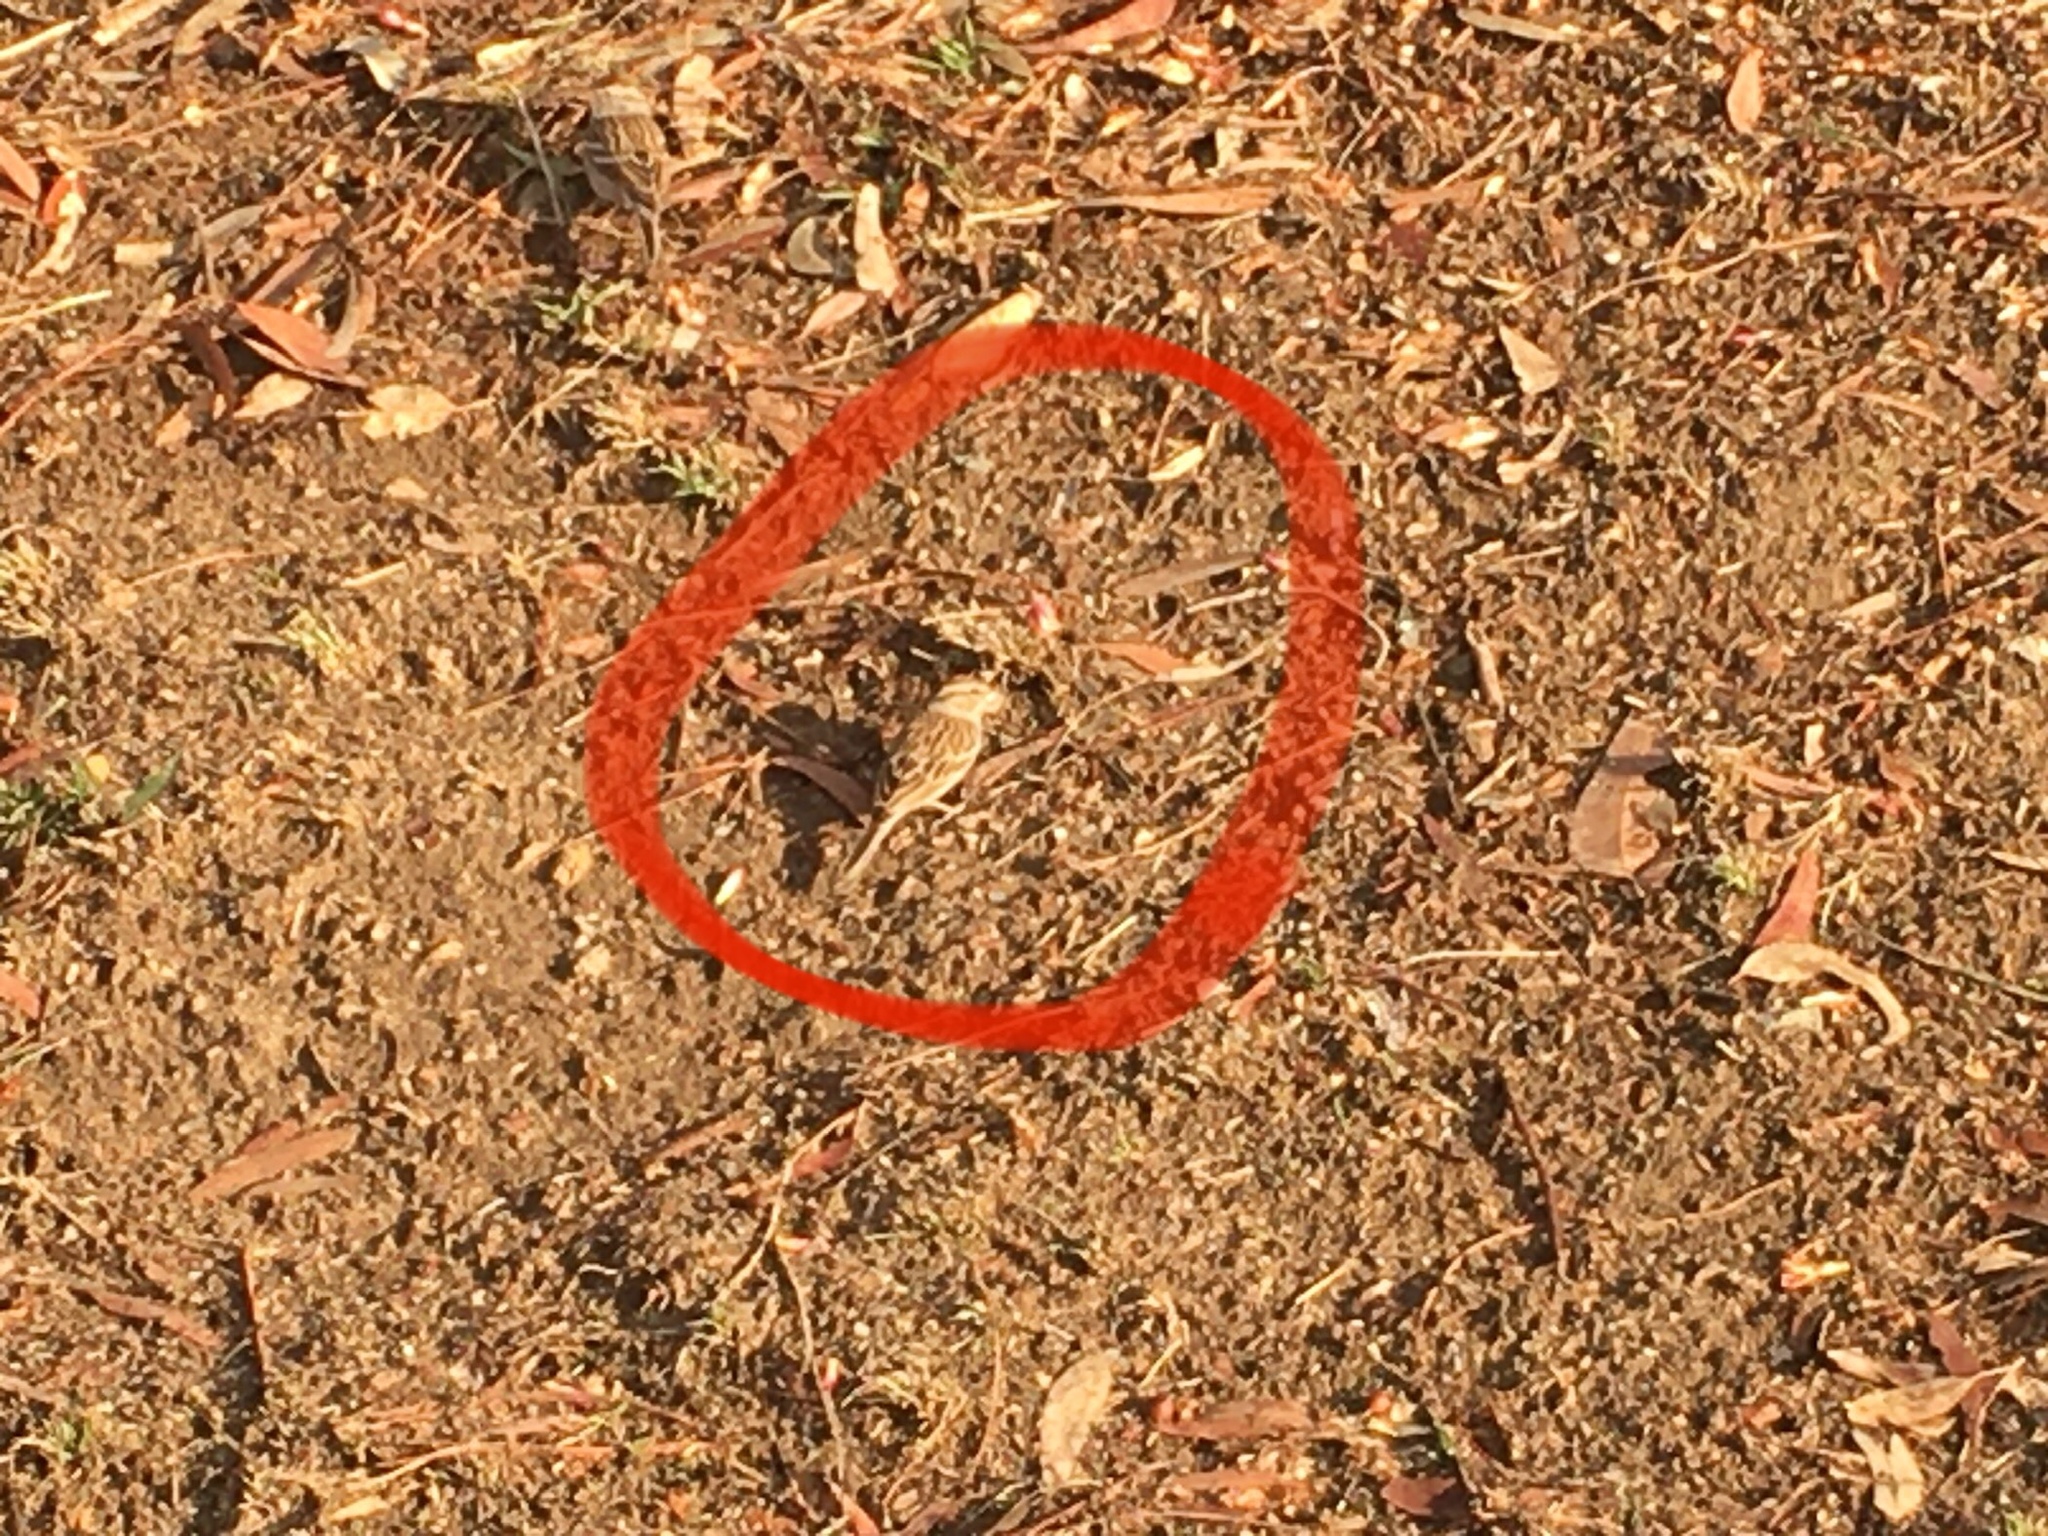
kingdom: Animalia
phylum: Chordata
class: Aves
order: Passeriformes
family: Passerellidae
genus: Spizella
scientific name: Spizella passerina
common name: Chipping sparrow
